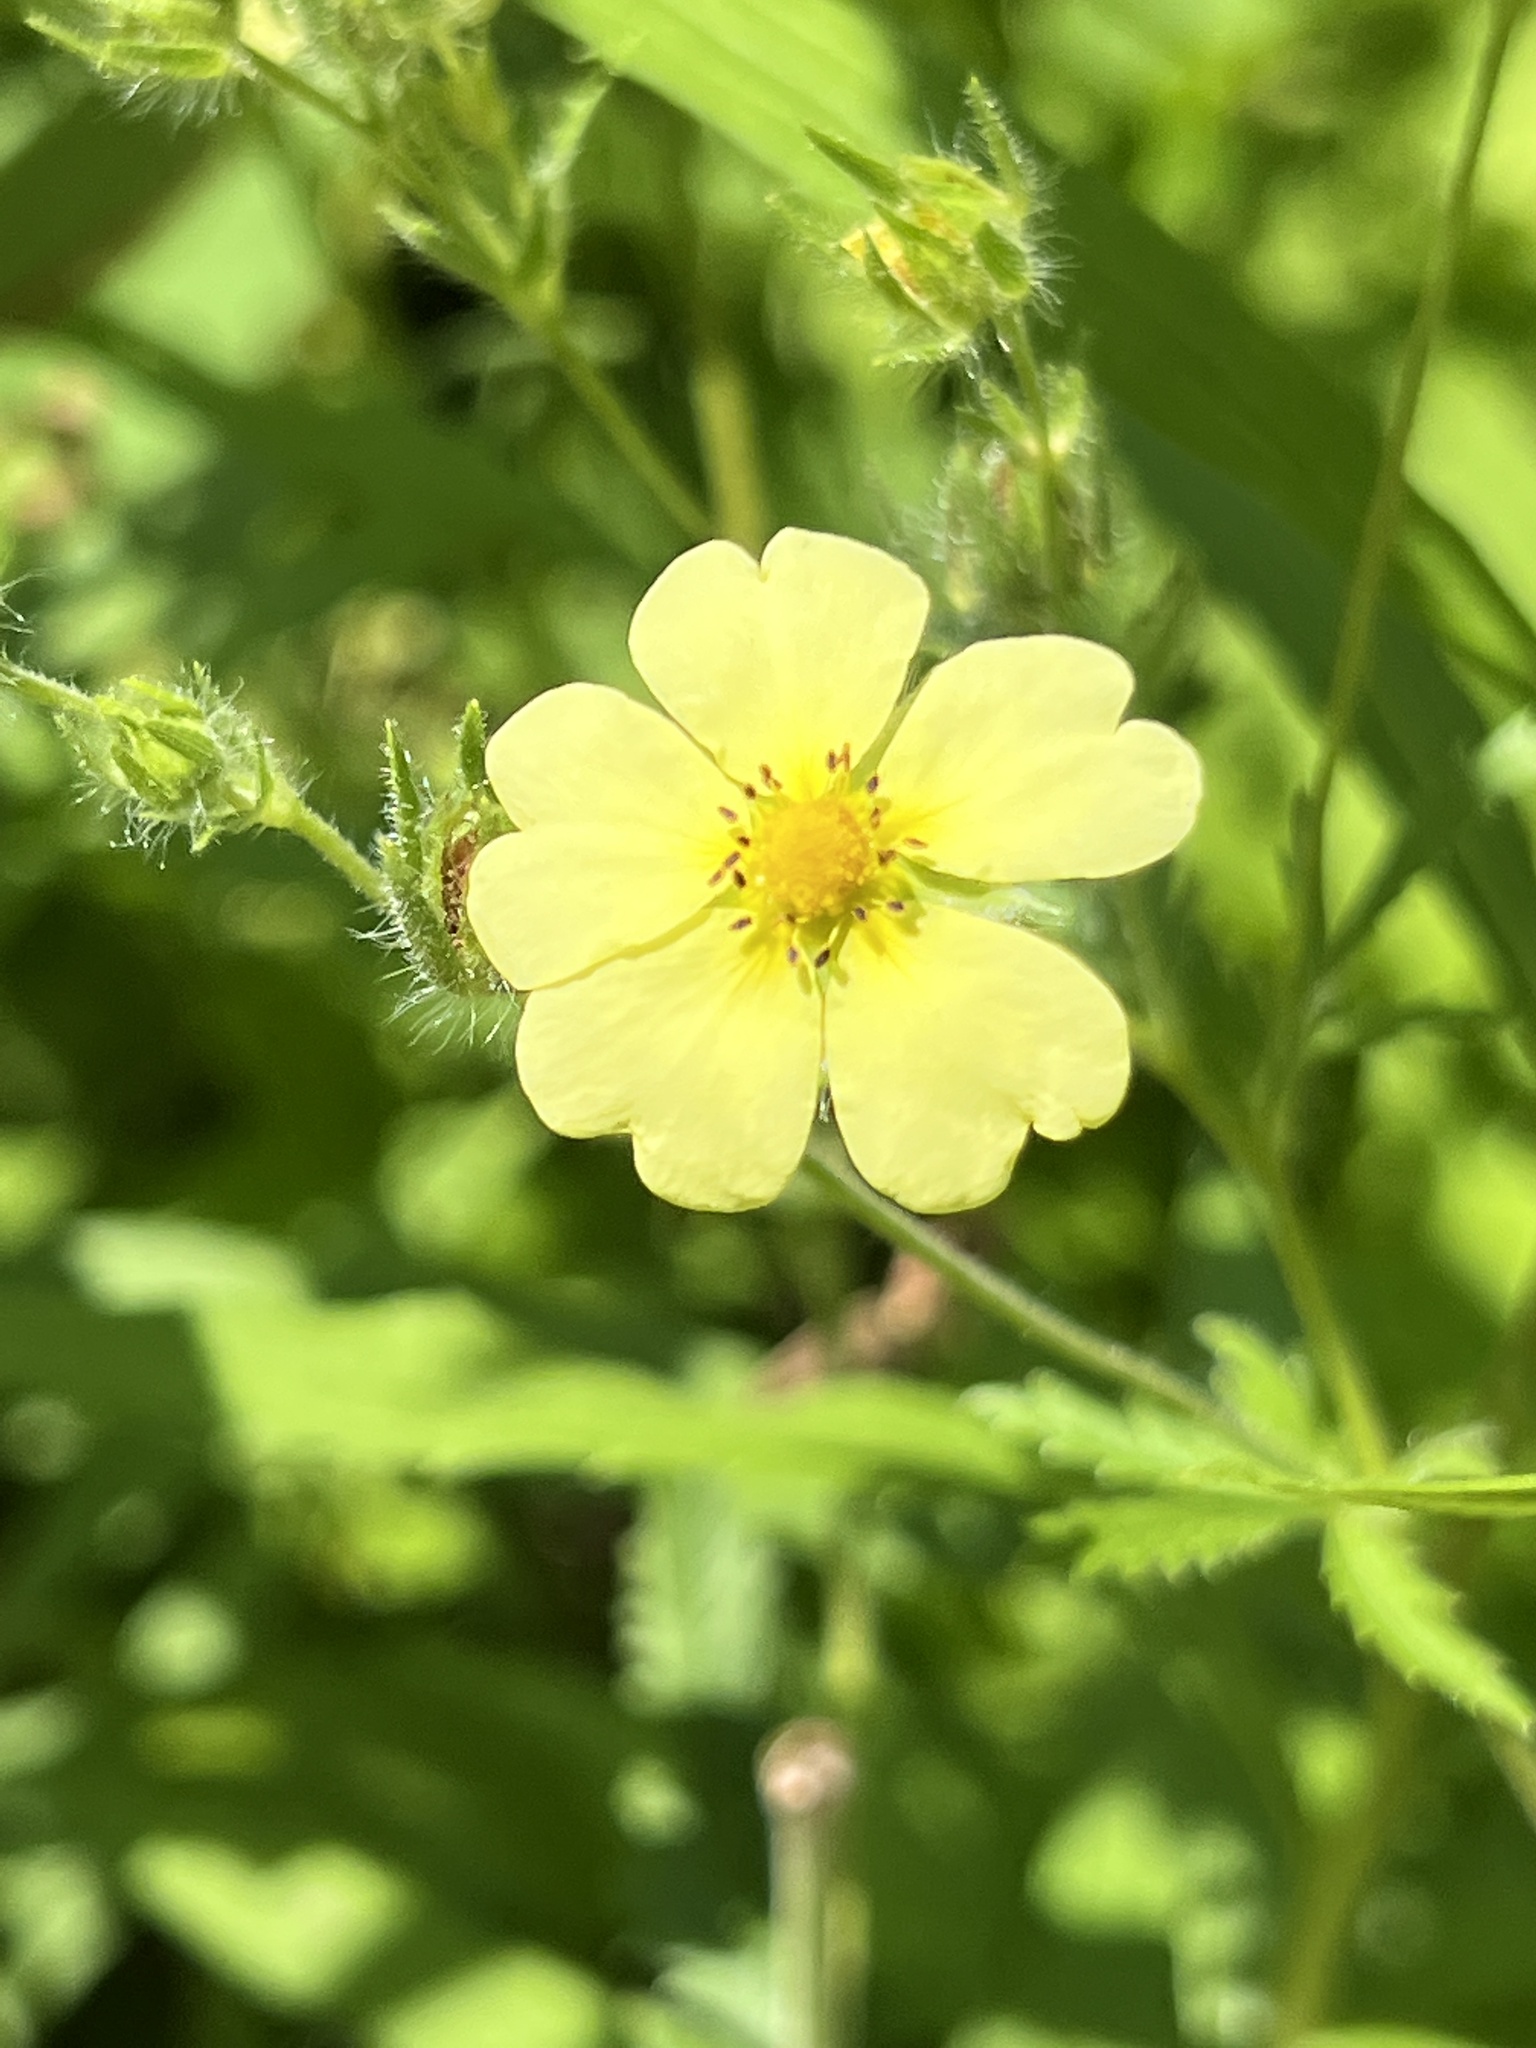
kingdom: Plantae
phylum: Tracheophyta
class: Magnoliopsida
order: Rosales
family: Rosaceae
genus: Potentilla
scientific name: Potentilla recta
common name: Sulphur cinquefoil
